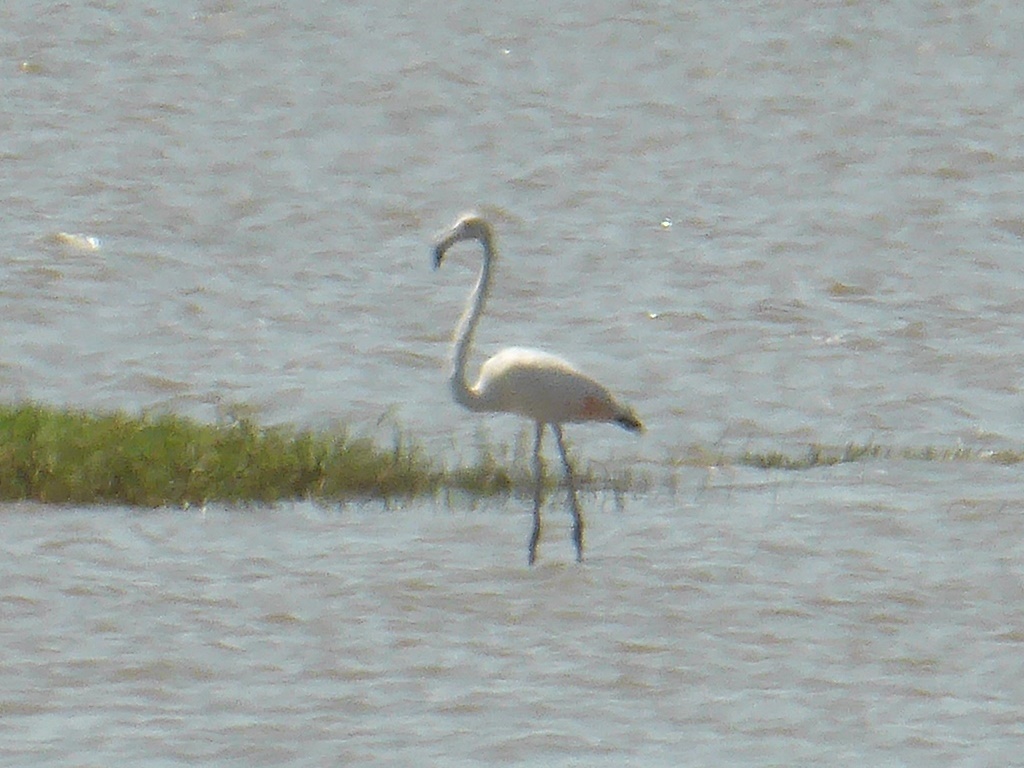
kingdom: Animalia
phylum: Chordata
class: Aves
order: Phoenicopteriformes
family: Phoenicopteridae
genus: Phoenicopterus
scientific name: Phoenicopterus roseus
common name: Greater flamingo
